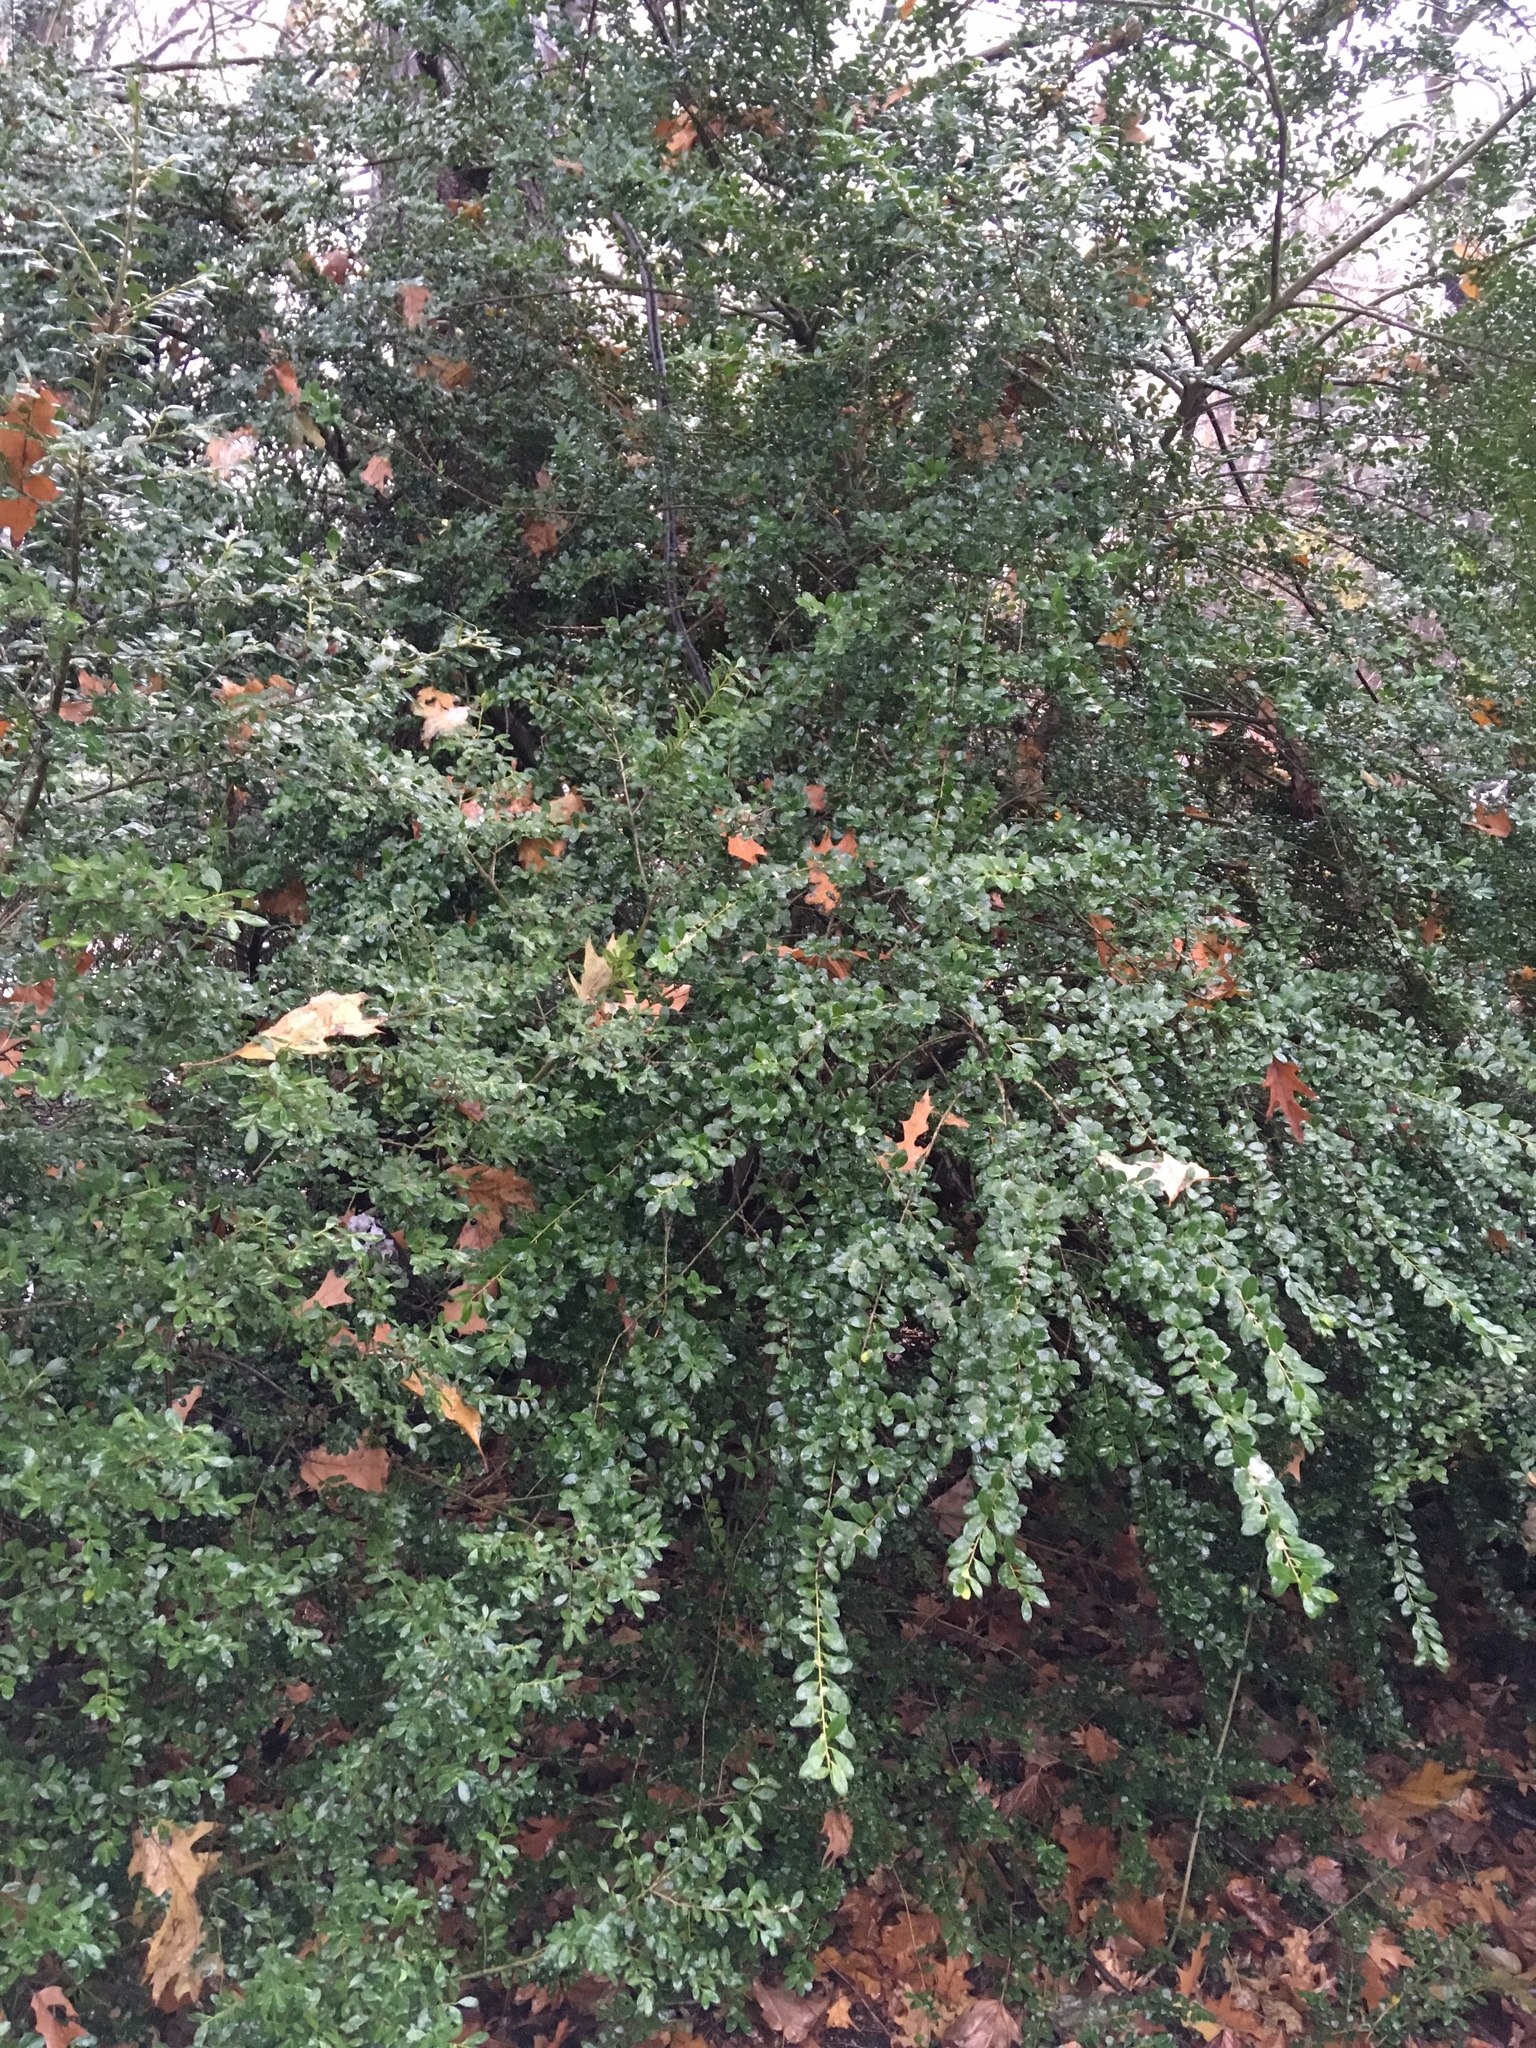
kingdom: Plantae
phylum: Tracheophyta
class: Magnoliopsida
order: Aquifoliales
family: Aquifoliaceae
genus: Ilex
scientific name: Ilex crenata
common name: Japanese holly
